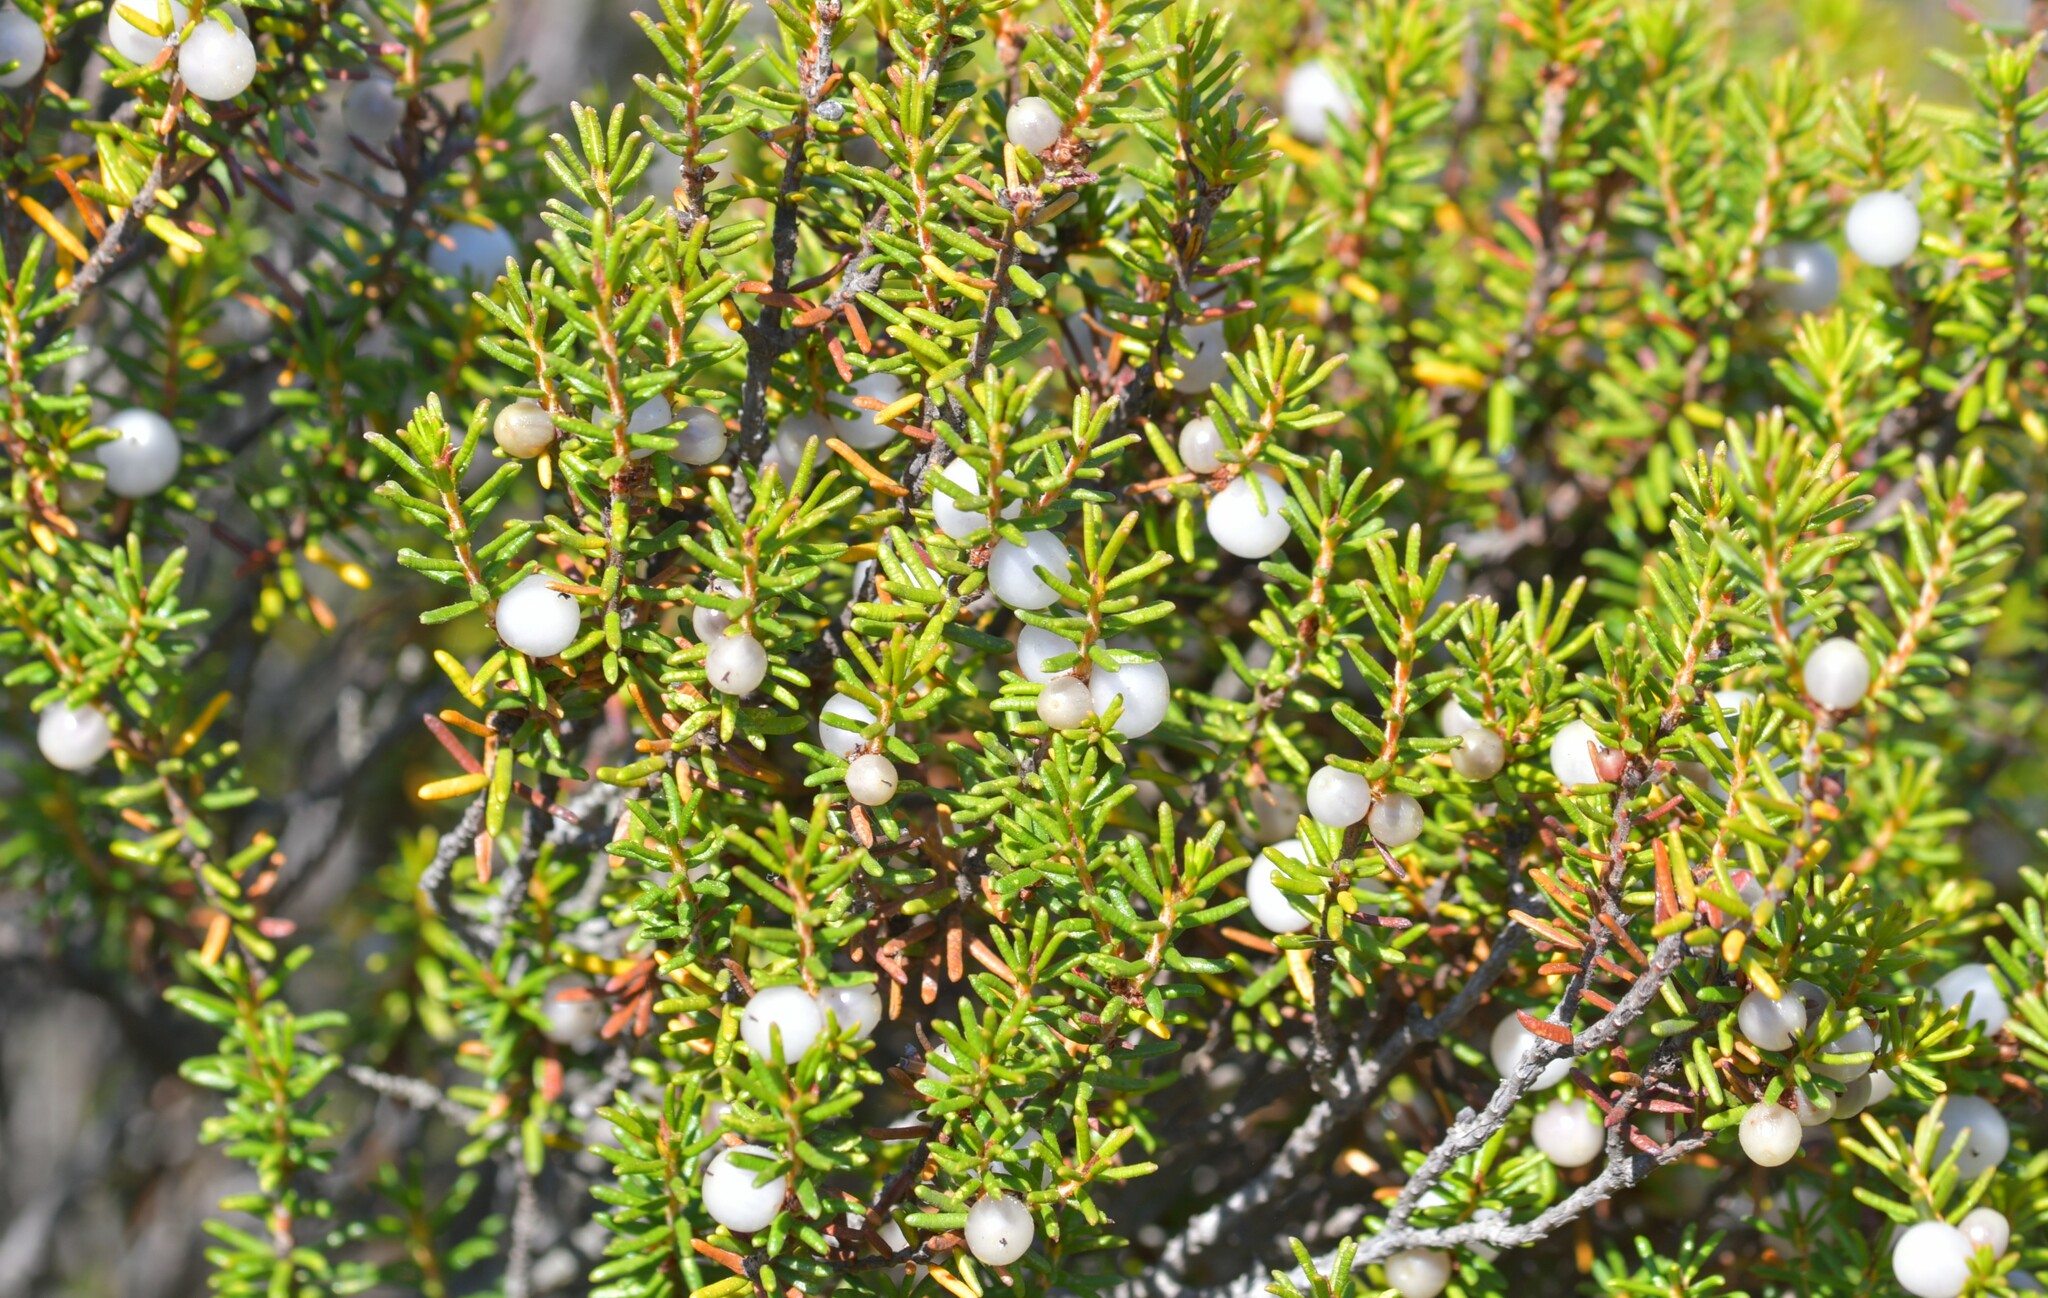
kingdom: Plantae
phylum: Tracheophyta
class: Magnoliopsida
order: Ericales
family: Ericaceae
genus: Corema
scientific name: Corema album
